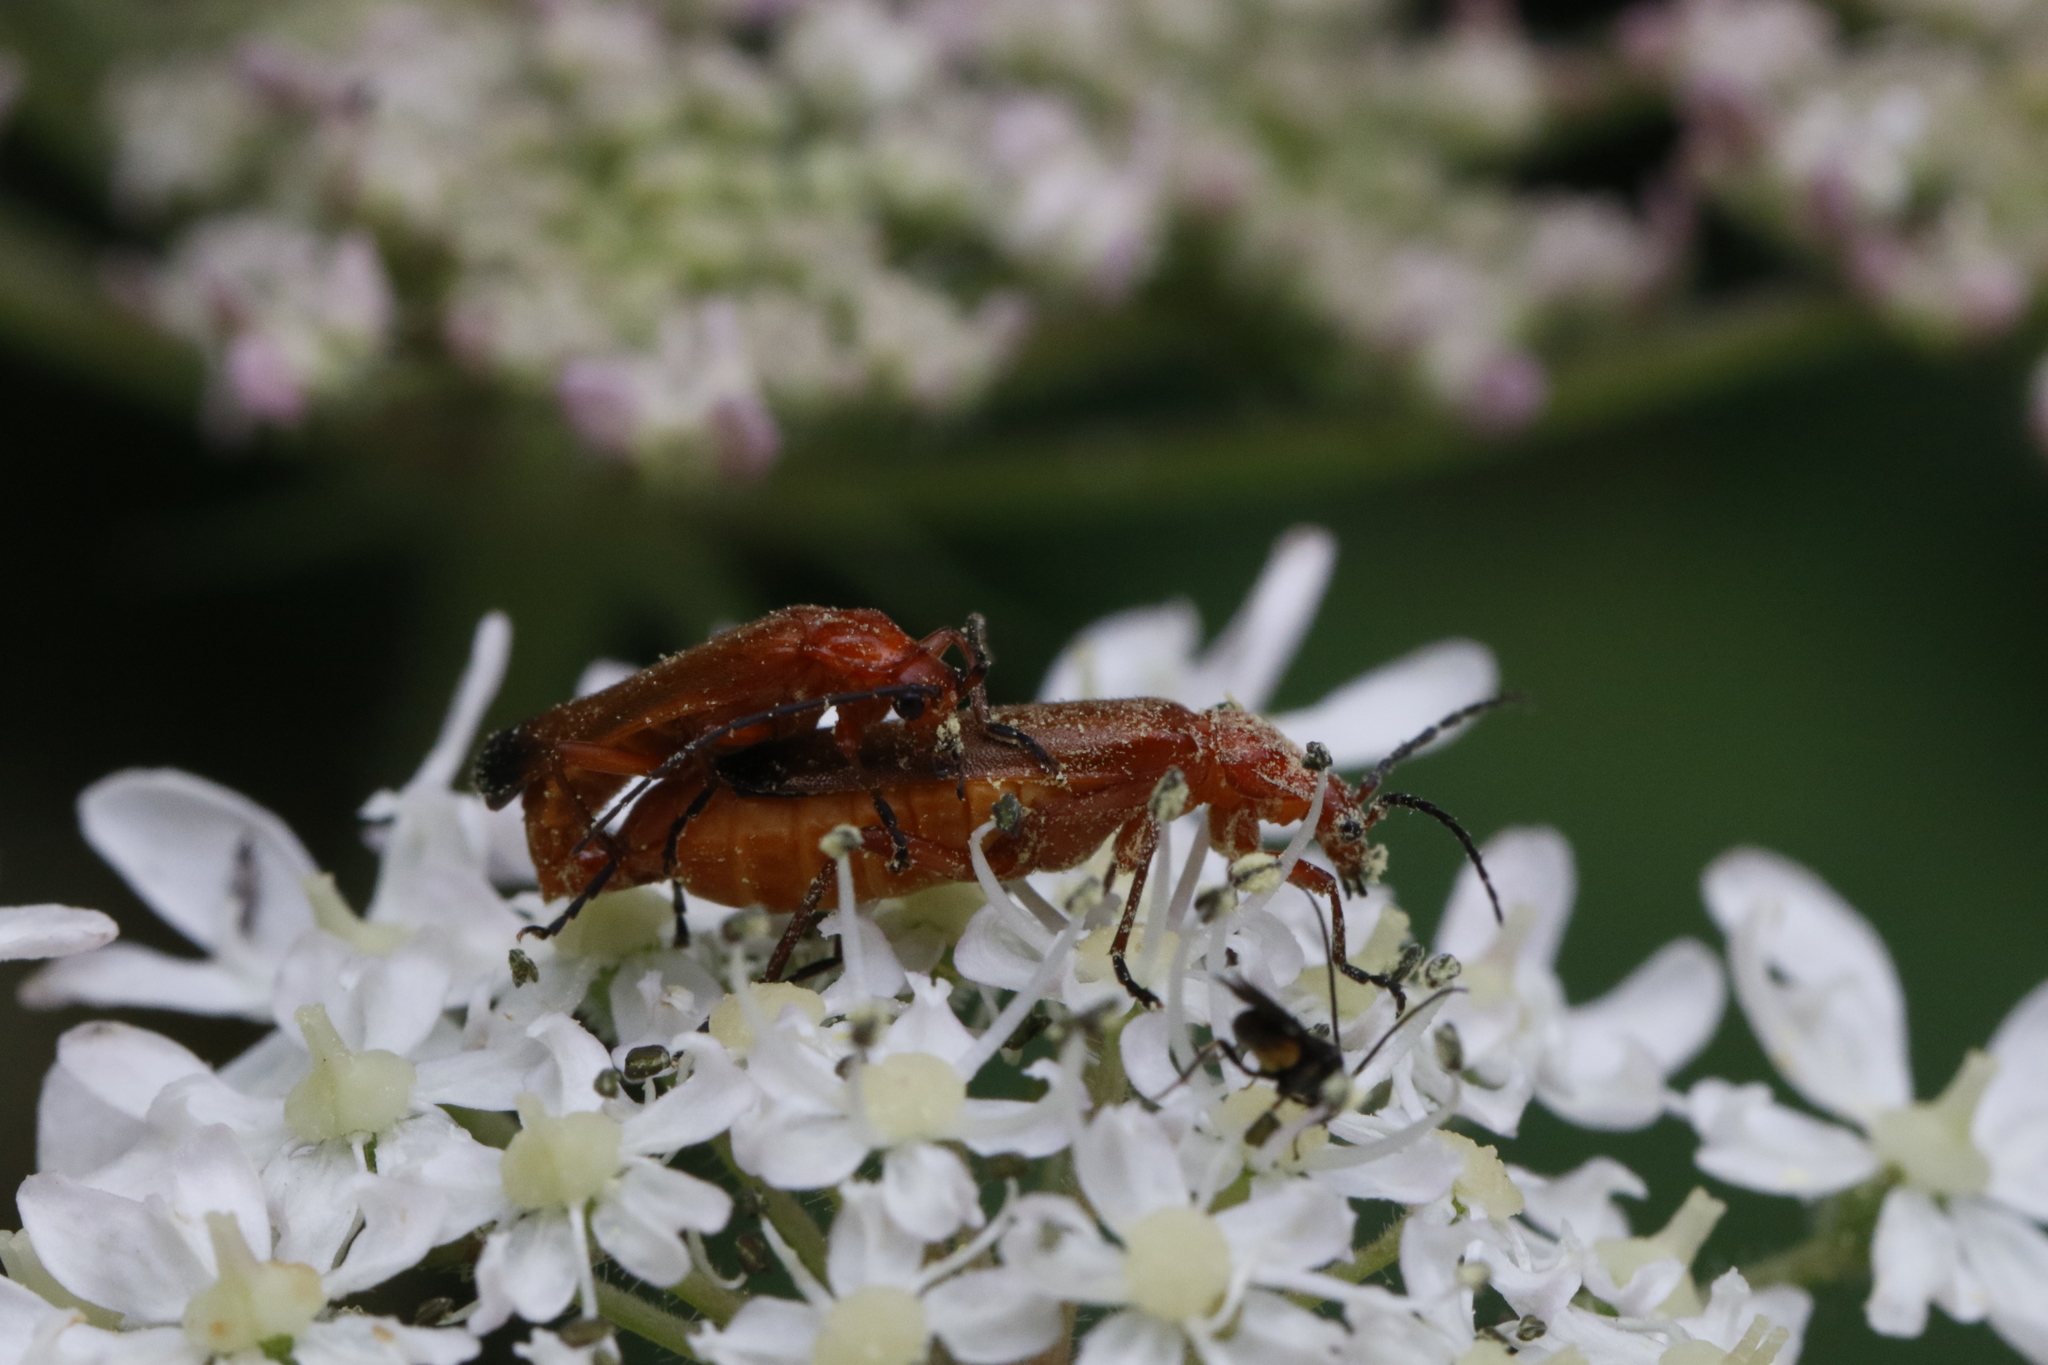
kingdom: Animalia
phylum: Arthropoda
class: Insecta
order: Coleoptera
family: Cantharidae
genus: Rhagonycha
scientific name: Rhagonycha fulva
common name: Common red soldier beetle
